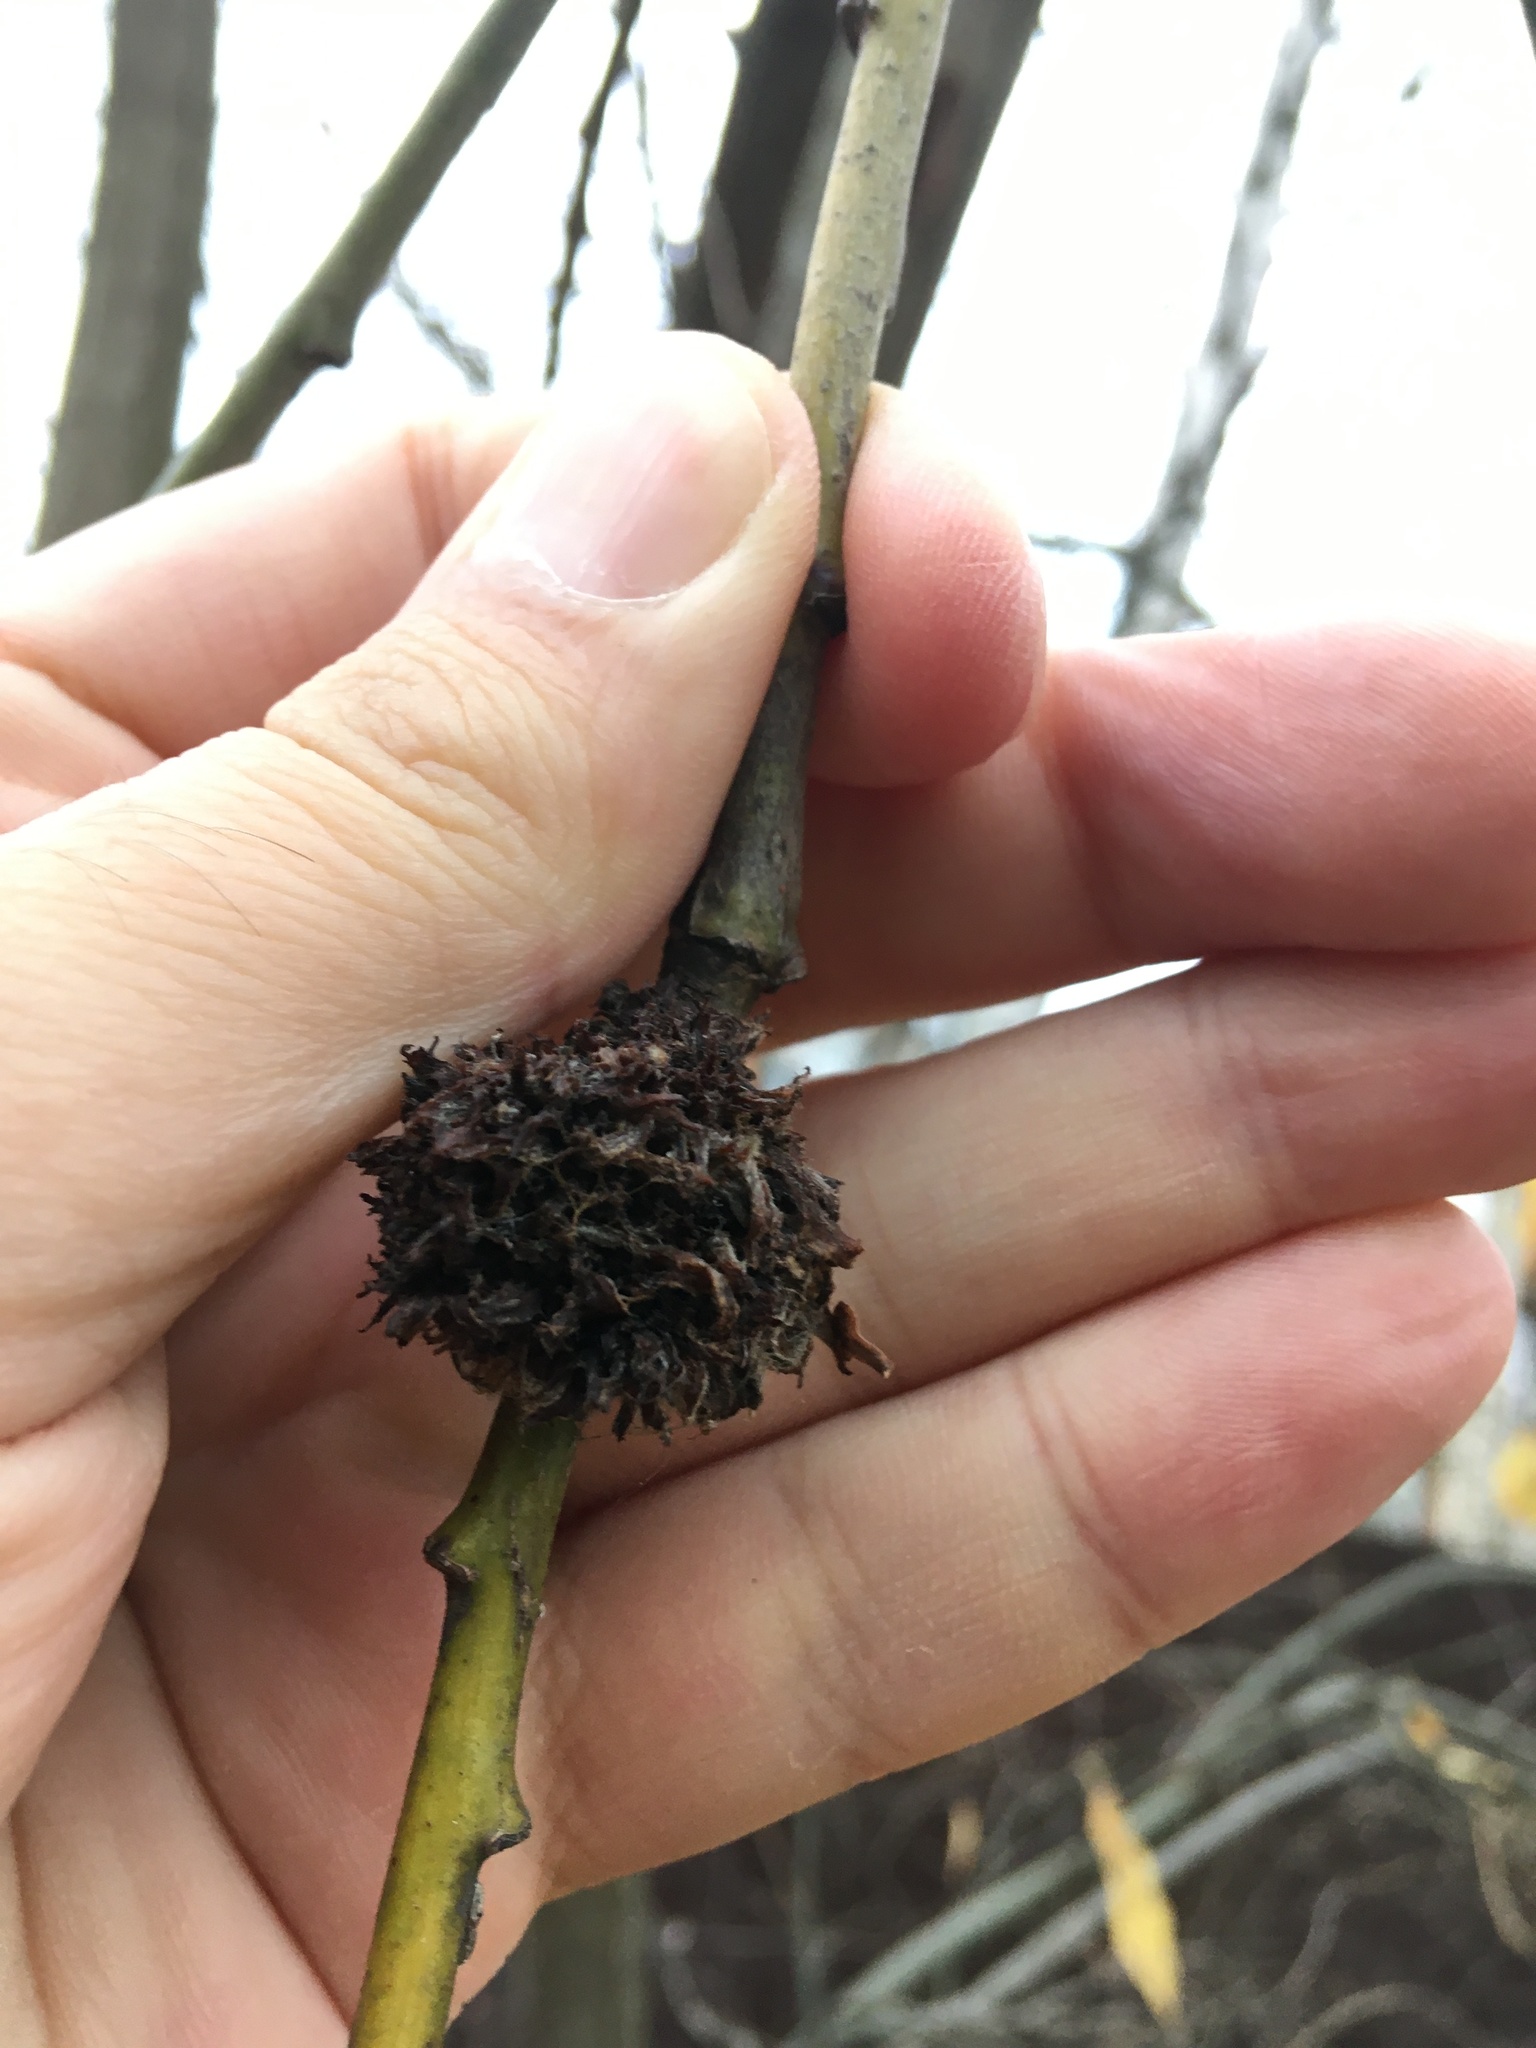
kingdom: Animalia
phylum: Arthropoda
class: Arachnida
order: Trombidiformes
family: Eriophyidae
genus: Stenacis
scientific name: Stenacis triradiatus
